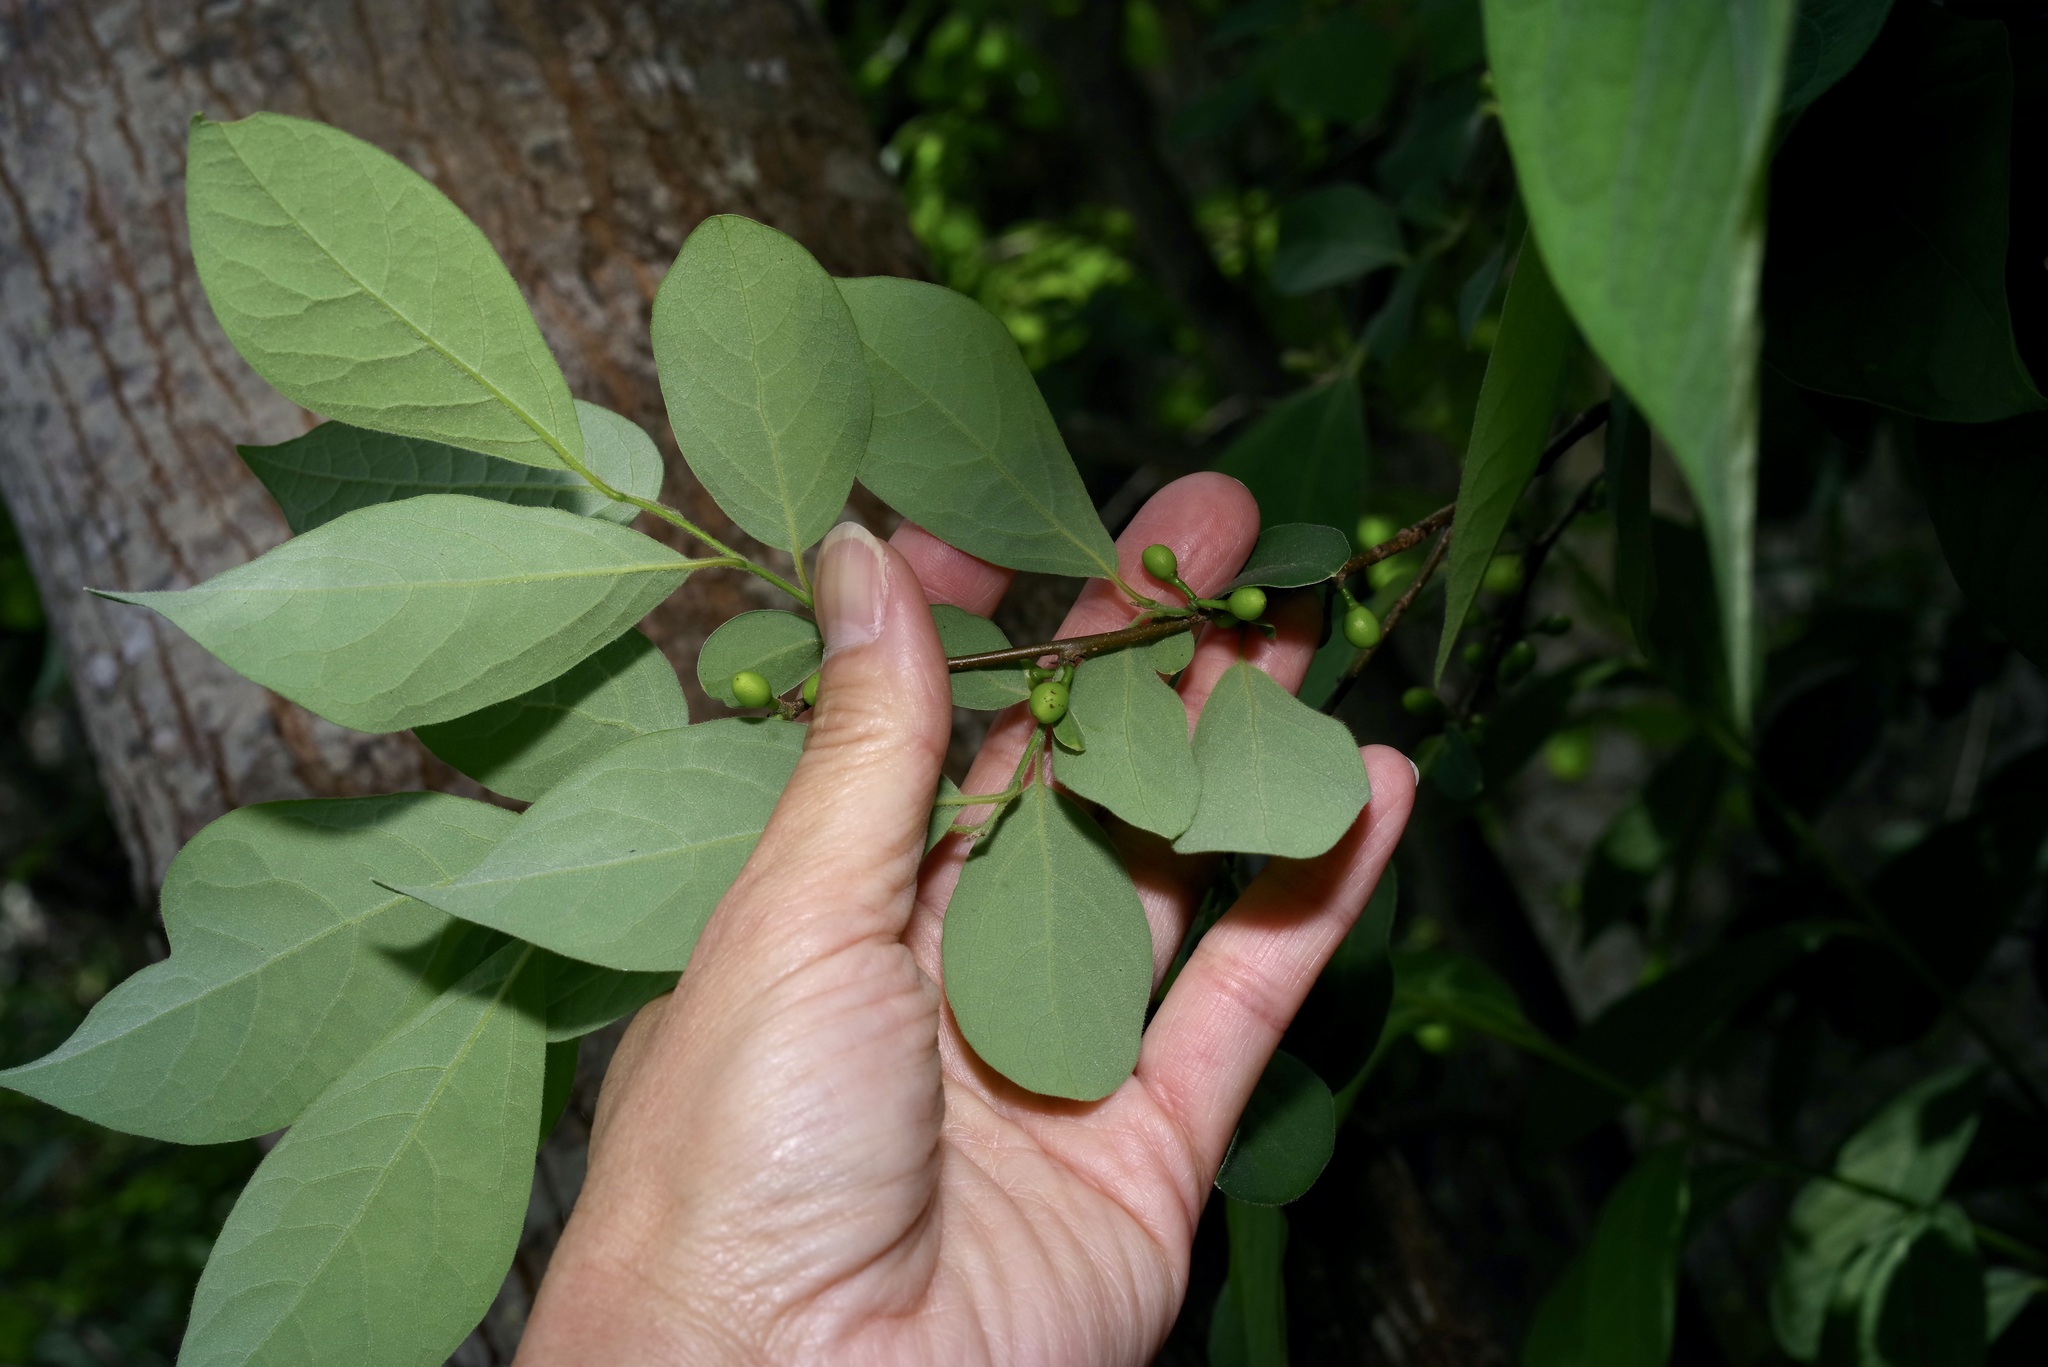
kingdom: Plantae
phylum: Tracheophyta
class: Magnoliopsida
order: Laurales
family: Lauraceae
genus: Lindera
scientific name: Lindera benzoin
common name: Spicebush
